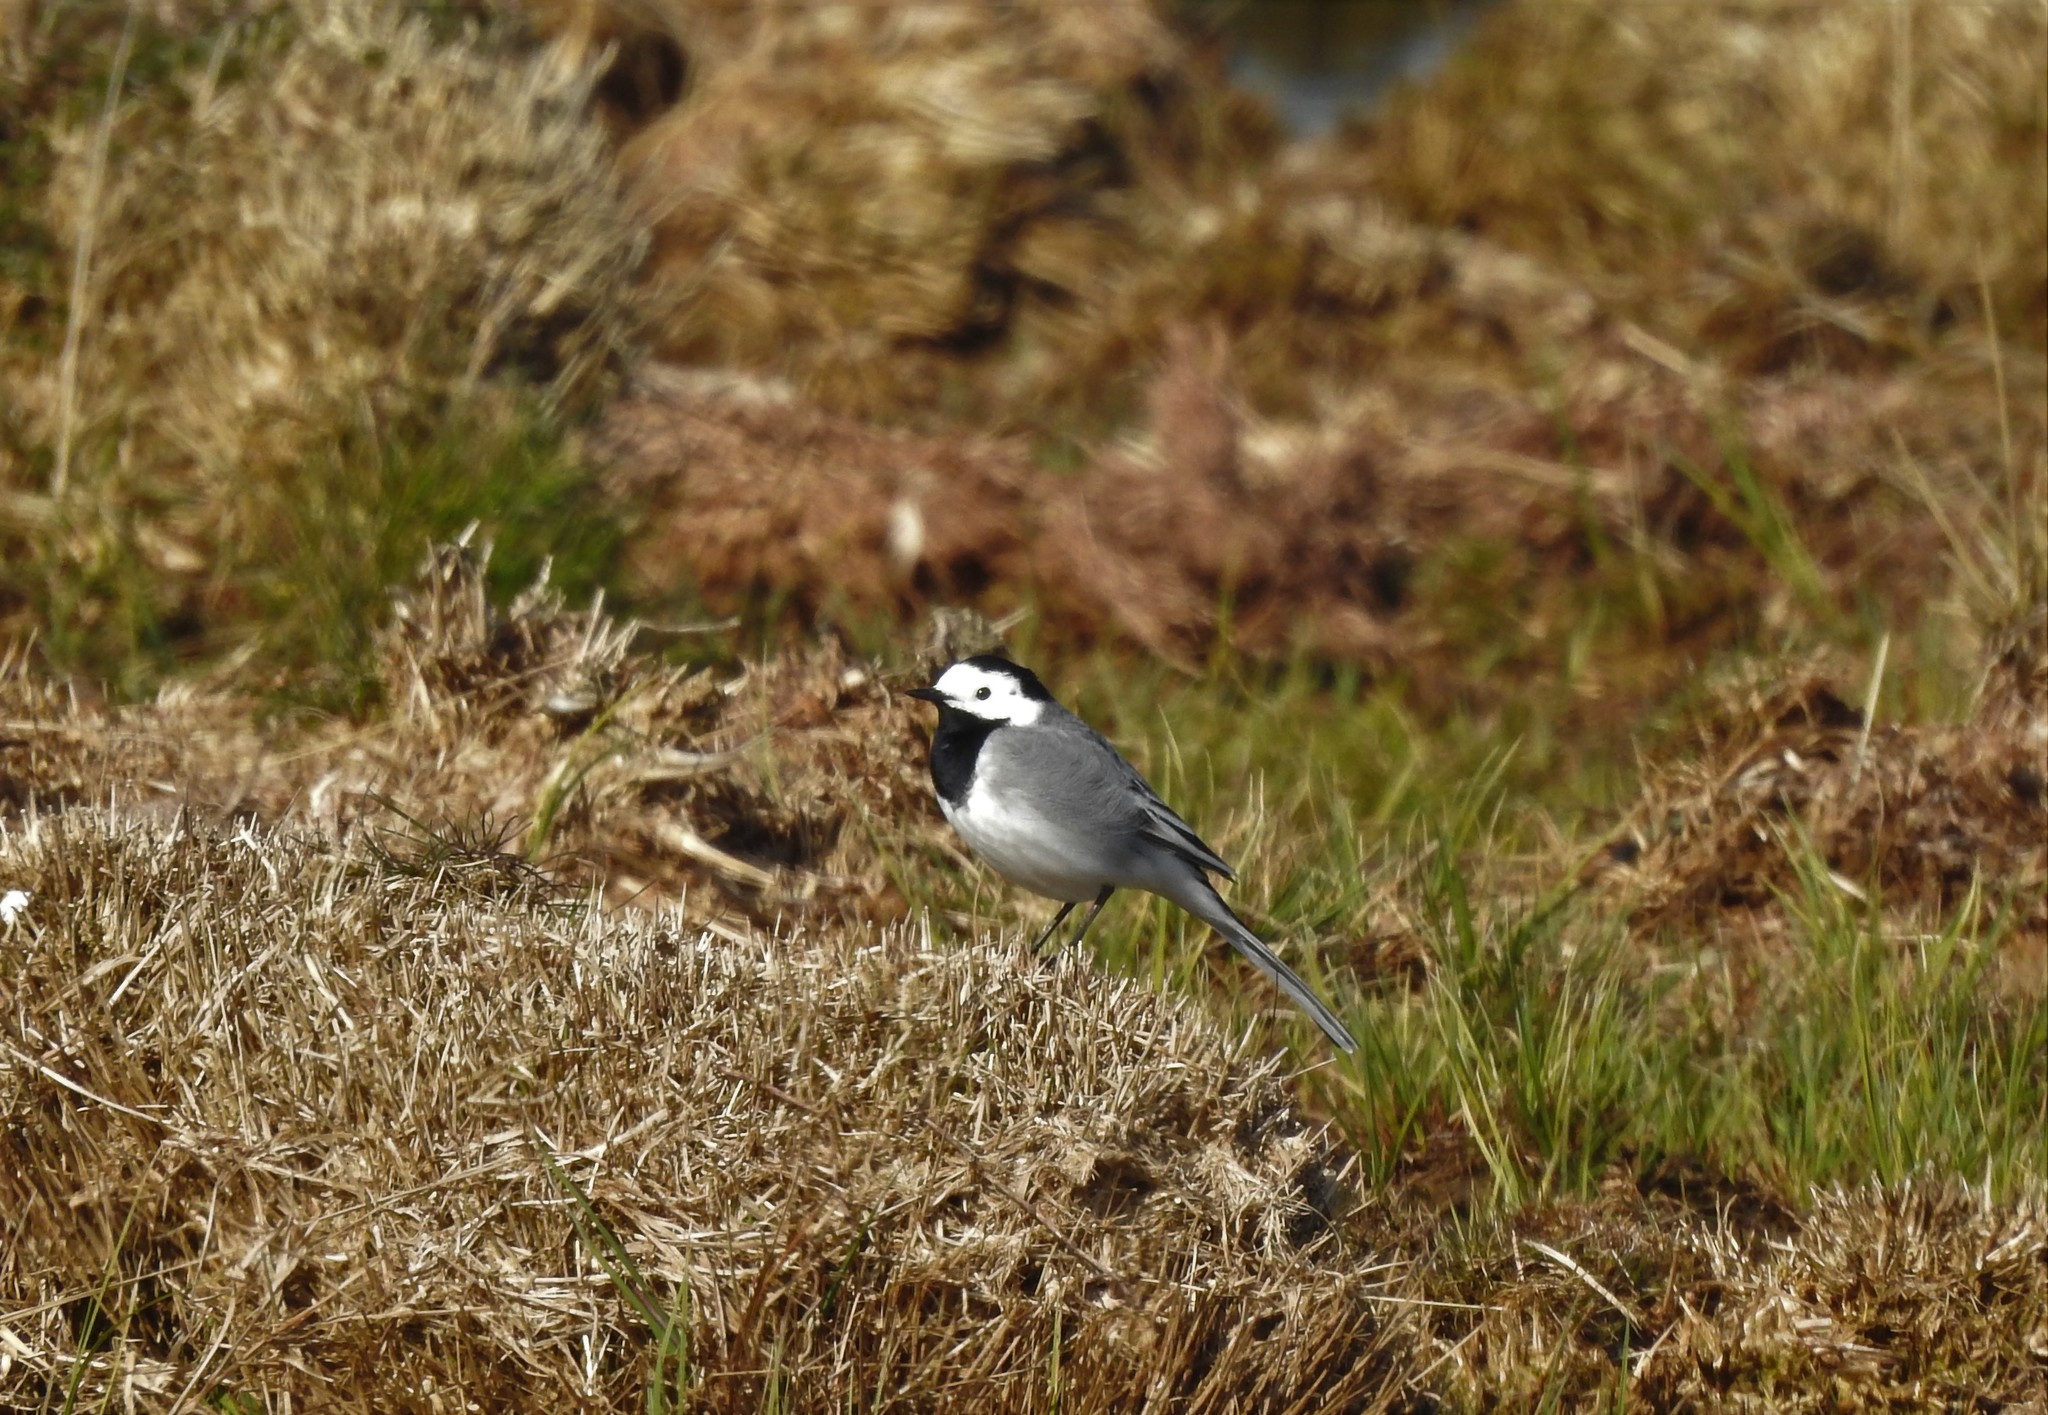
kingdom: Animalia
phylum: Chordata
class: Aves
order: Passeriformes
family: Motacillidae
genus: Motacilla
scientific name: Motacilla alba
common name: White wagtail
